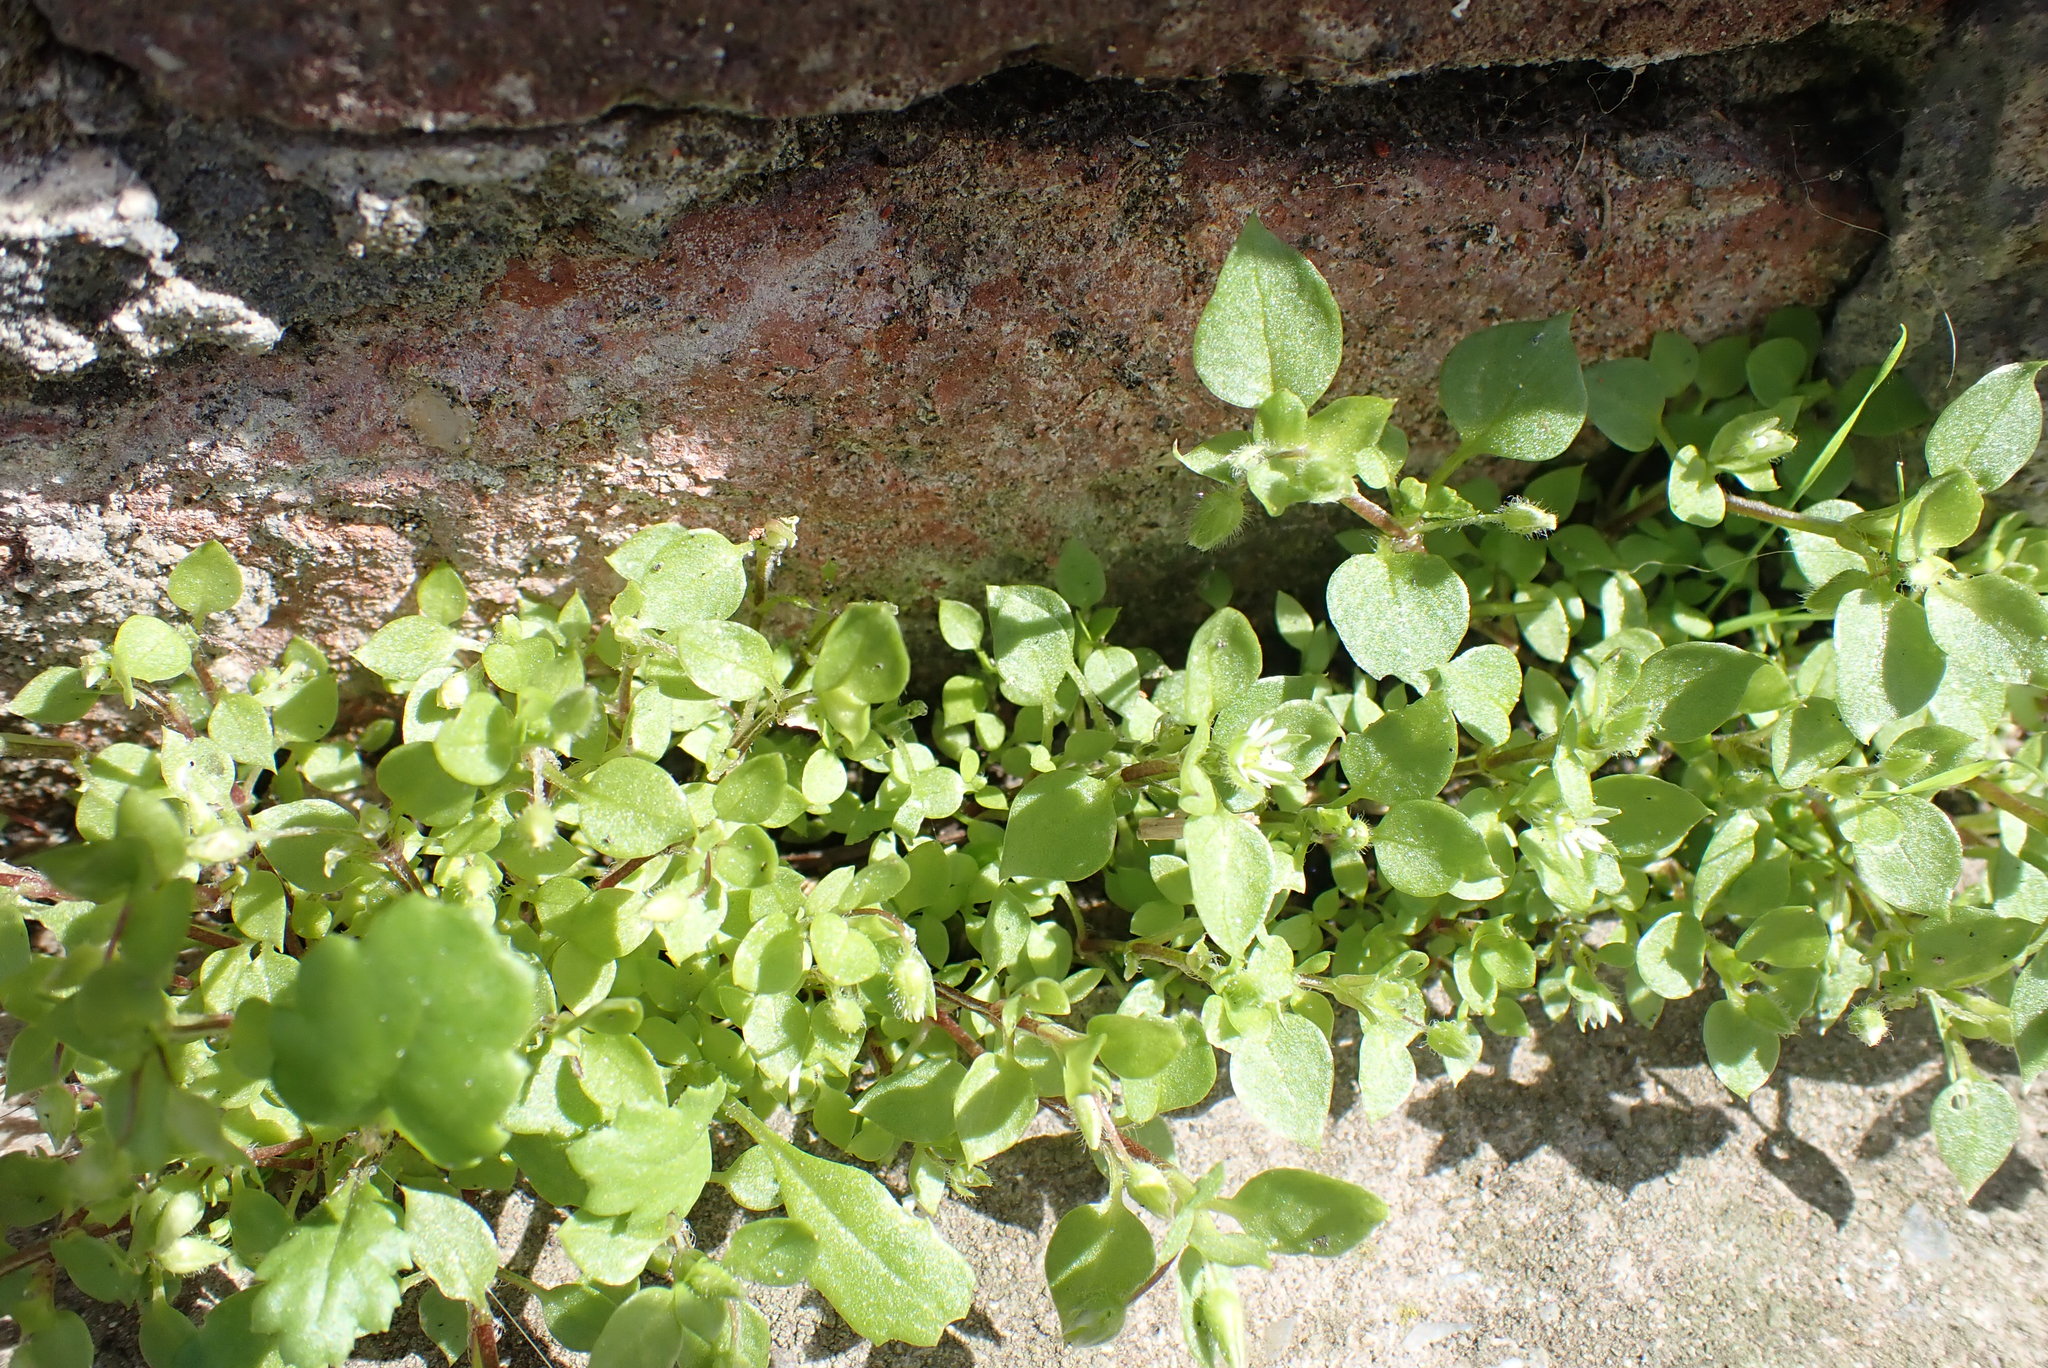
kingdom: Plantae
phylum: Tracheophyta
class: Magnoliopsida
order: Caryophyllales
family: Caryophyllaceae
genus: Stellaria
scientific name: Stellaria media
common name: Common chickweed
